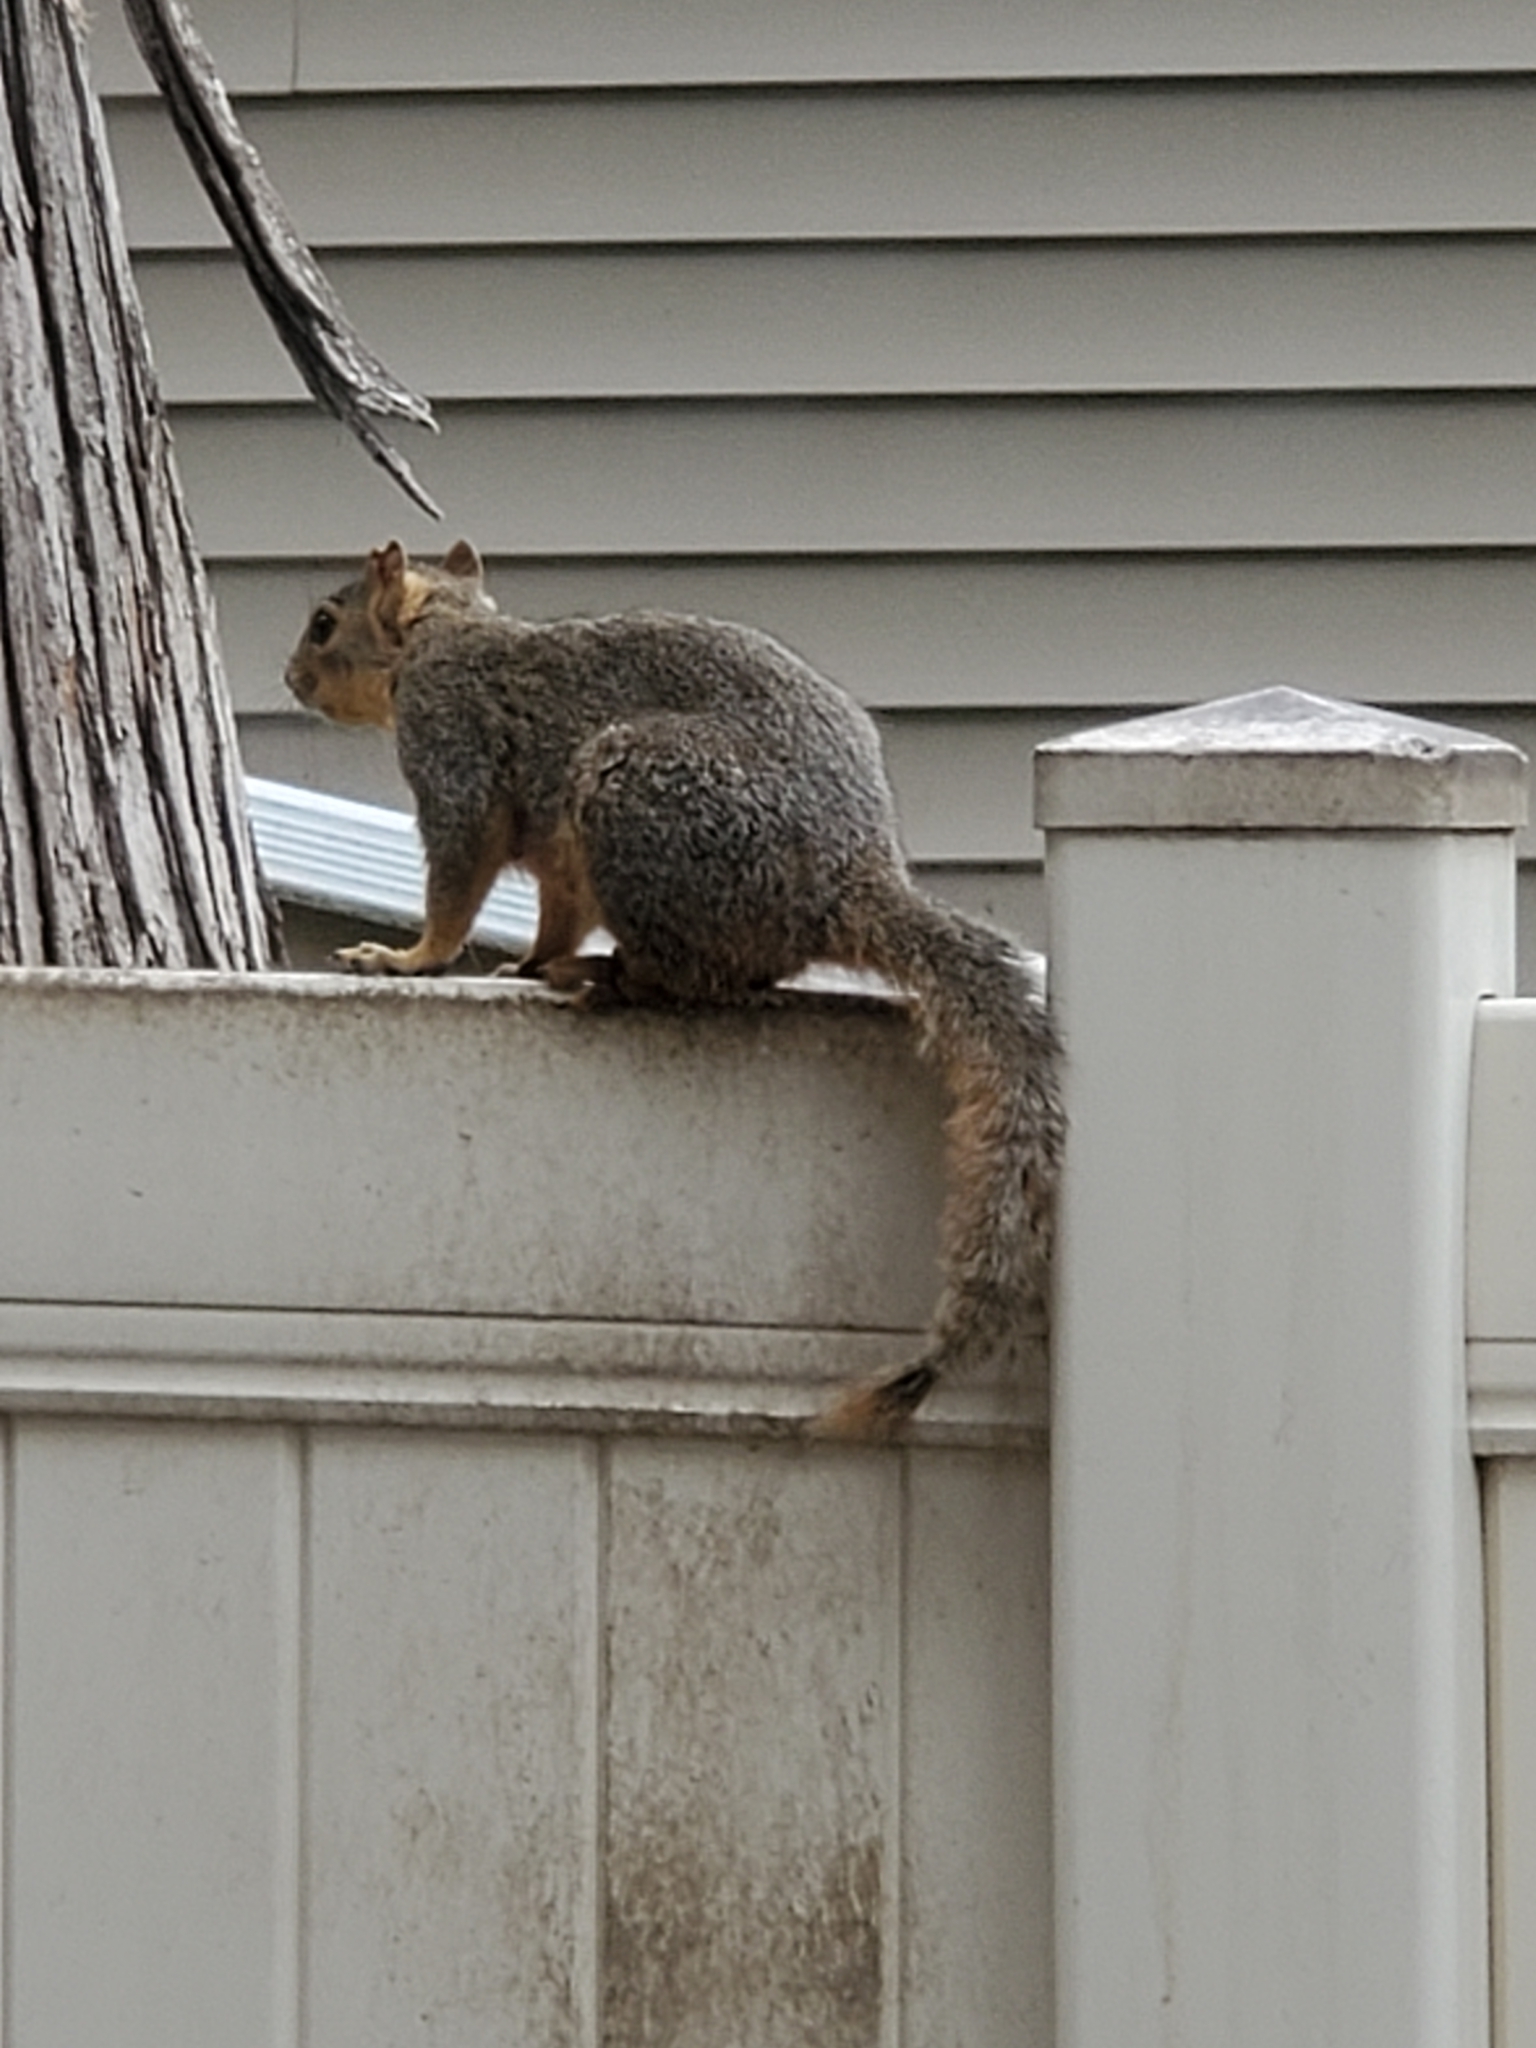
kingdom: Animalia
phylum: Chordata
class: Mammalia
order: Rodentia
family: Sciuridae
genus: Sciurus
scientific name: Sciurus niger
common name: Fox squirrel
